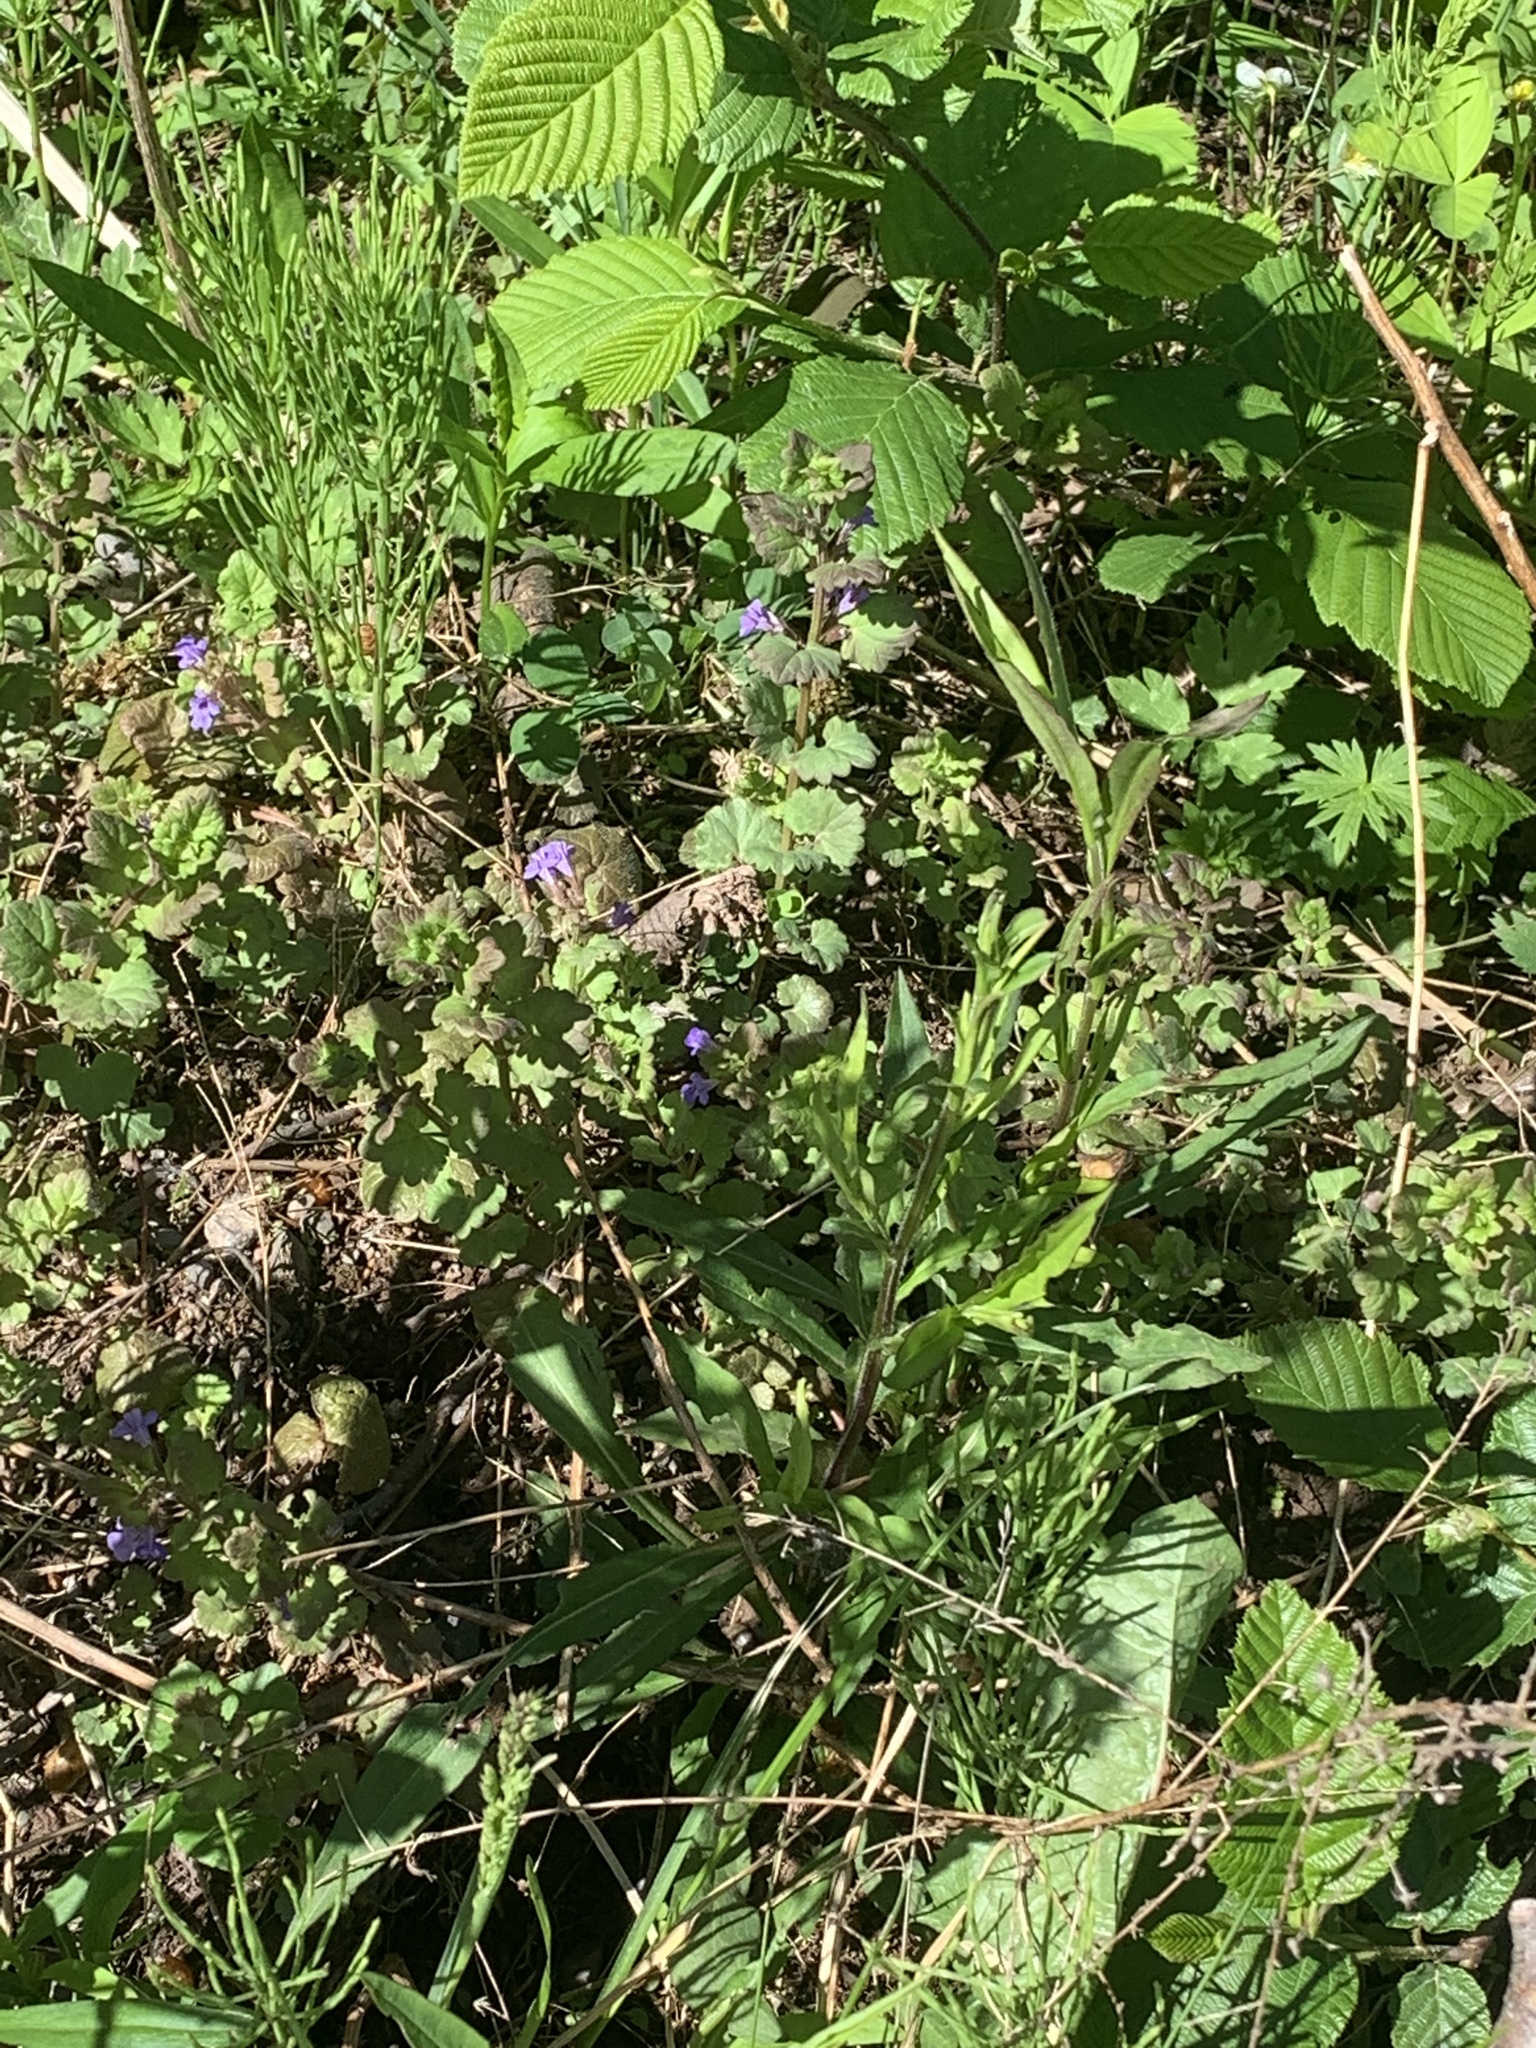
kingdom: Plantae
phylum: Tracheophyta
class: Magnoliopsida
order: Lamiales
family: Lamiaceae
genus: Glechoma
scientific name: Glechoma hederacea
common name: Ground ivy
